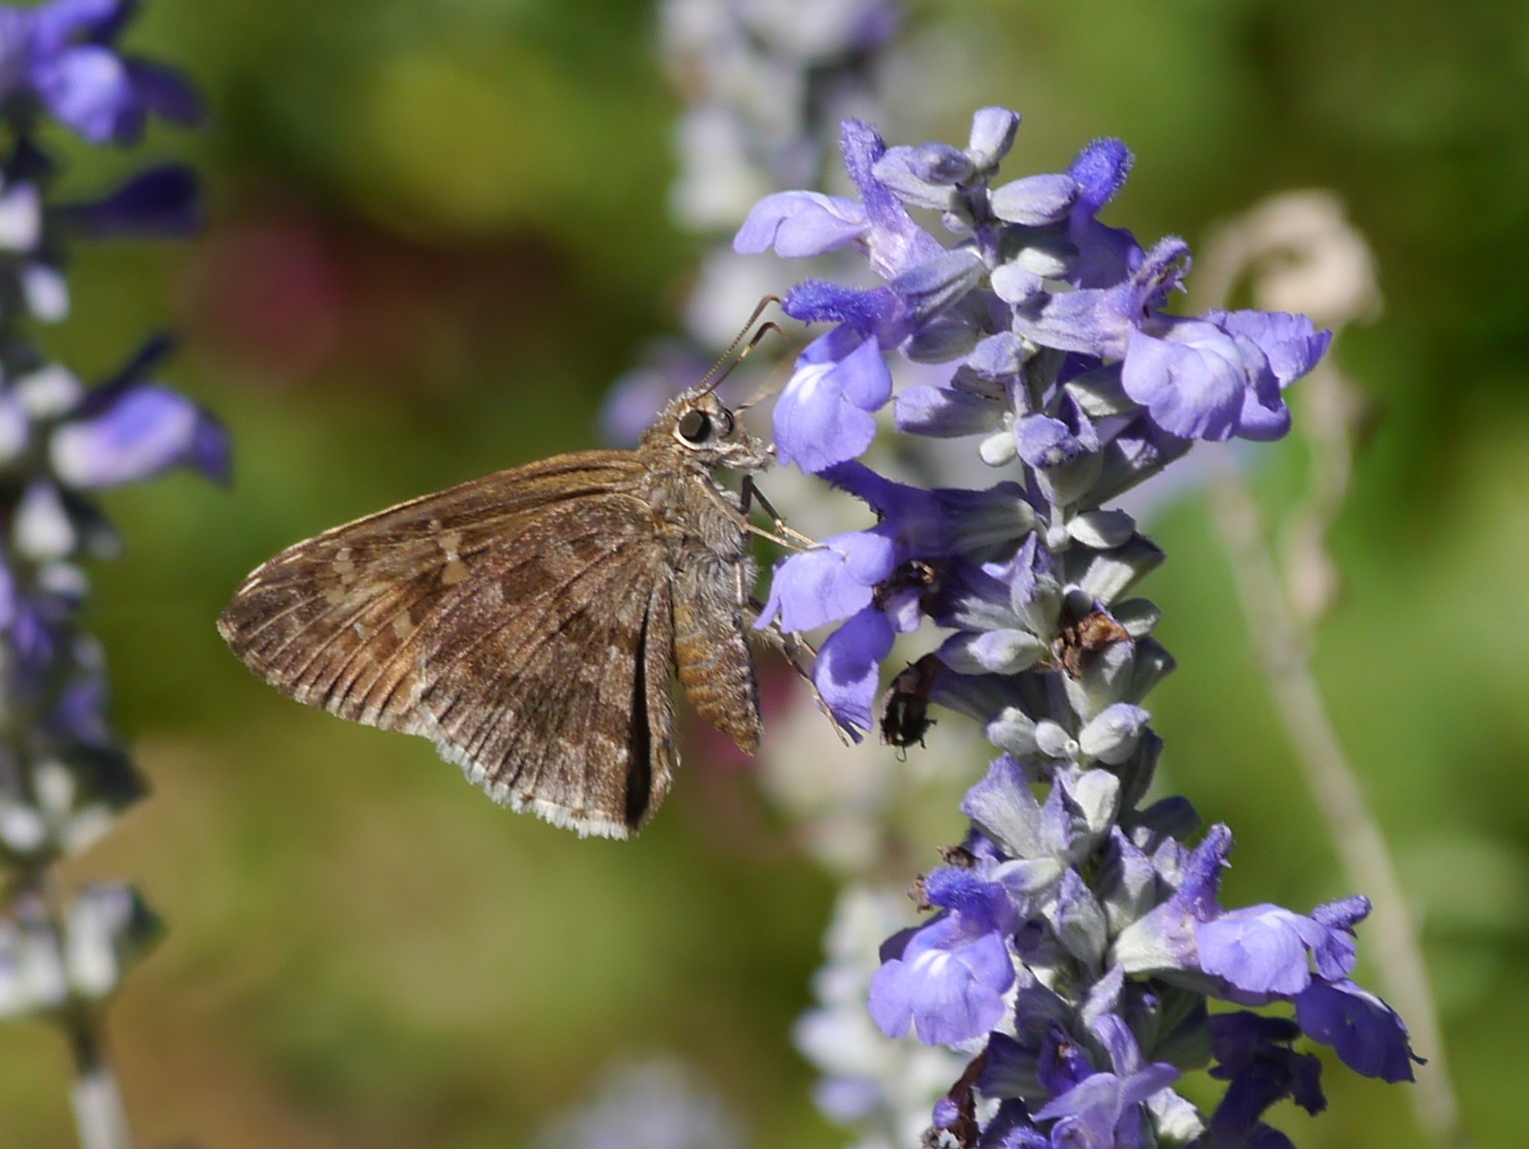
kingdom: Animalia
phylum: Arthropoda
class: Insecta
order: Lepidoptera
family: Hesperiidae
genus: Cogia
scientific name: Cogia hippalus
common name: Acacia skipper
